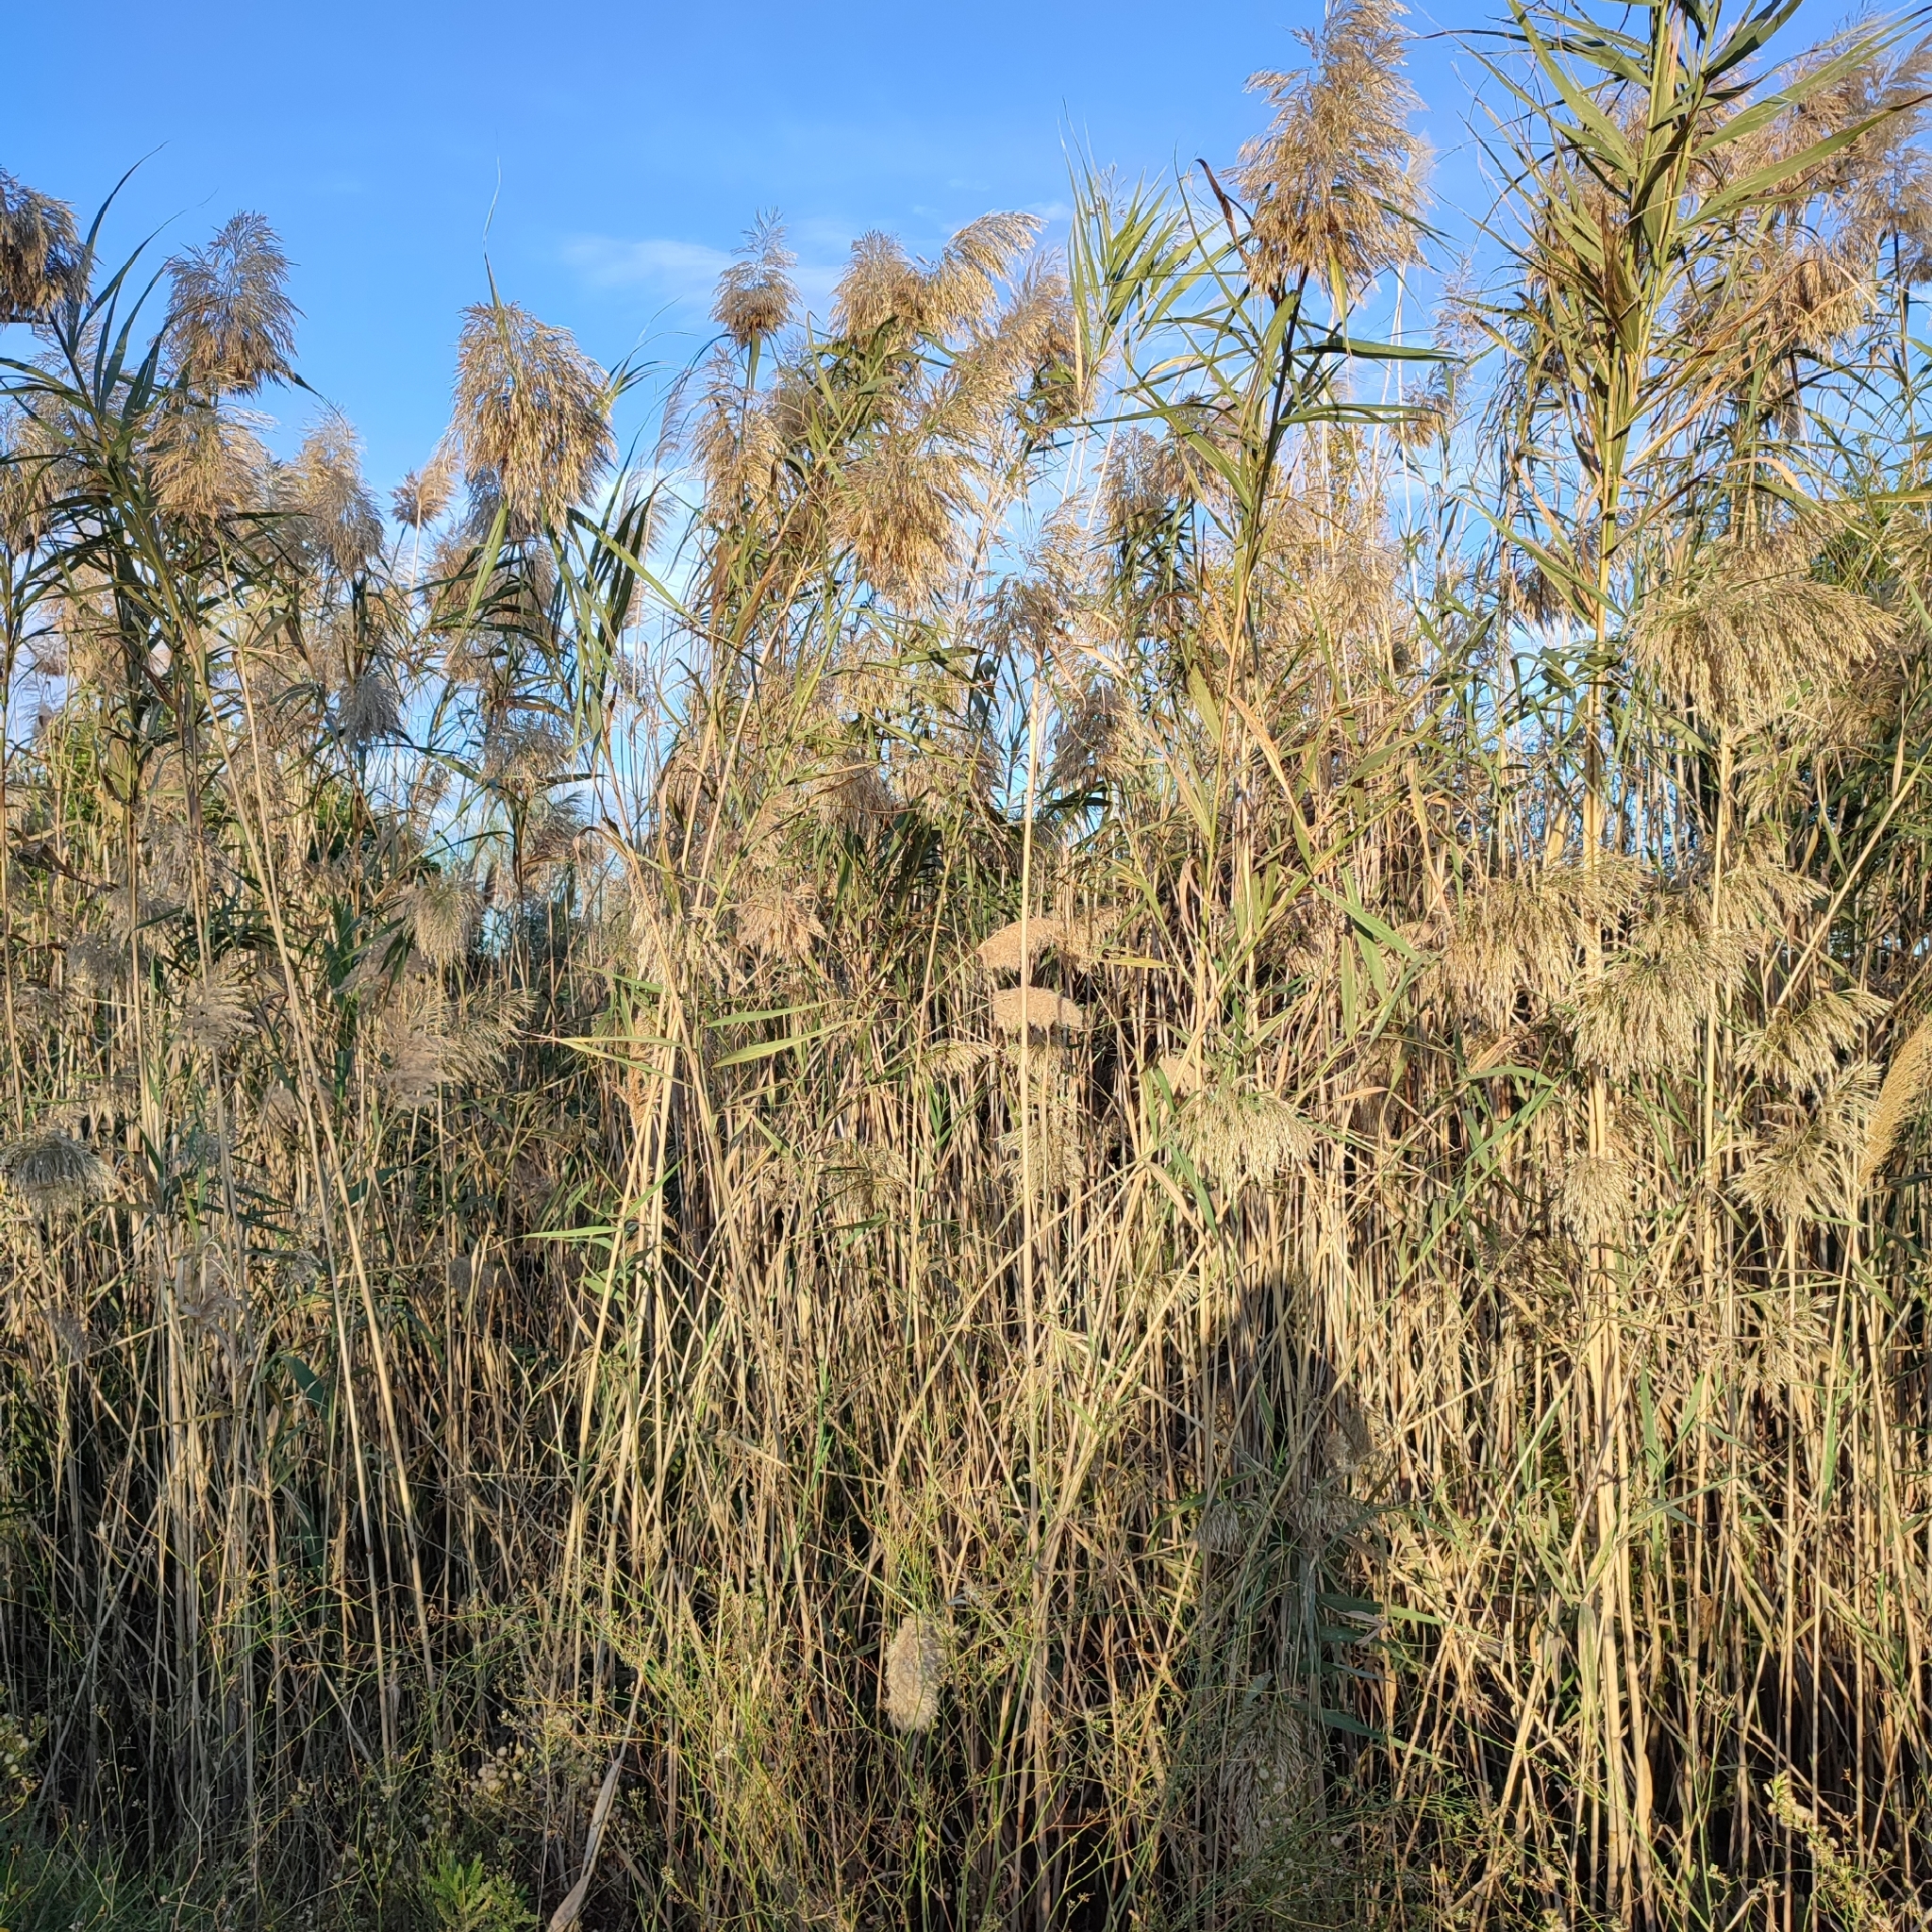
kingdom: Plantae
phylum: Tracheophyta
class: Liliopsida
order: Poales
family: Poaceae
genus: Phragmites
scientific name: Phragmites australis
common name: Common reed
